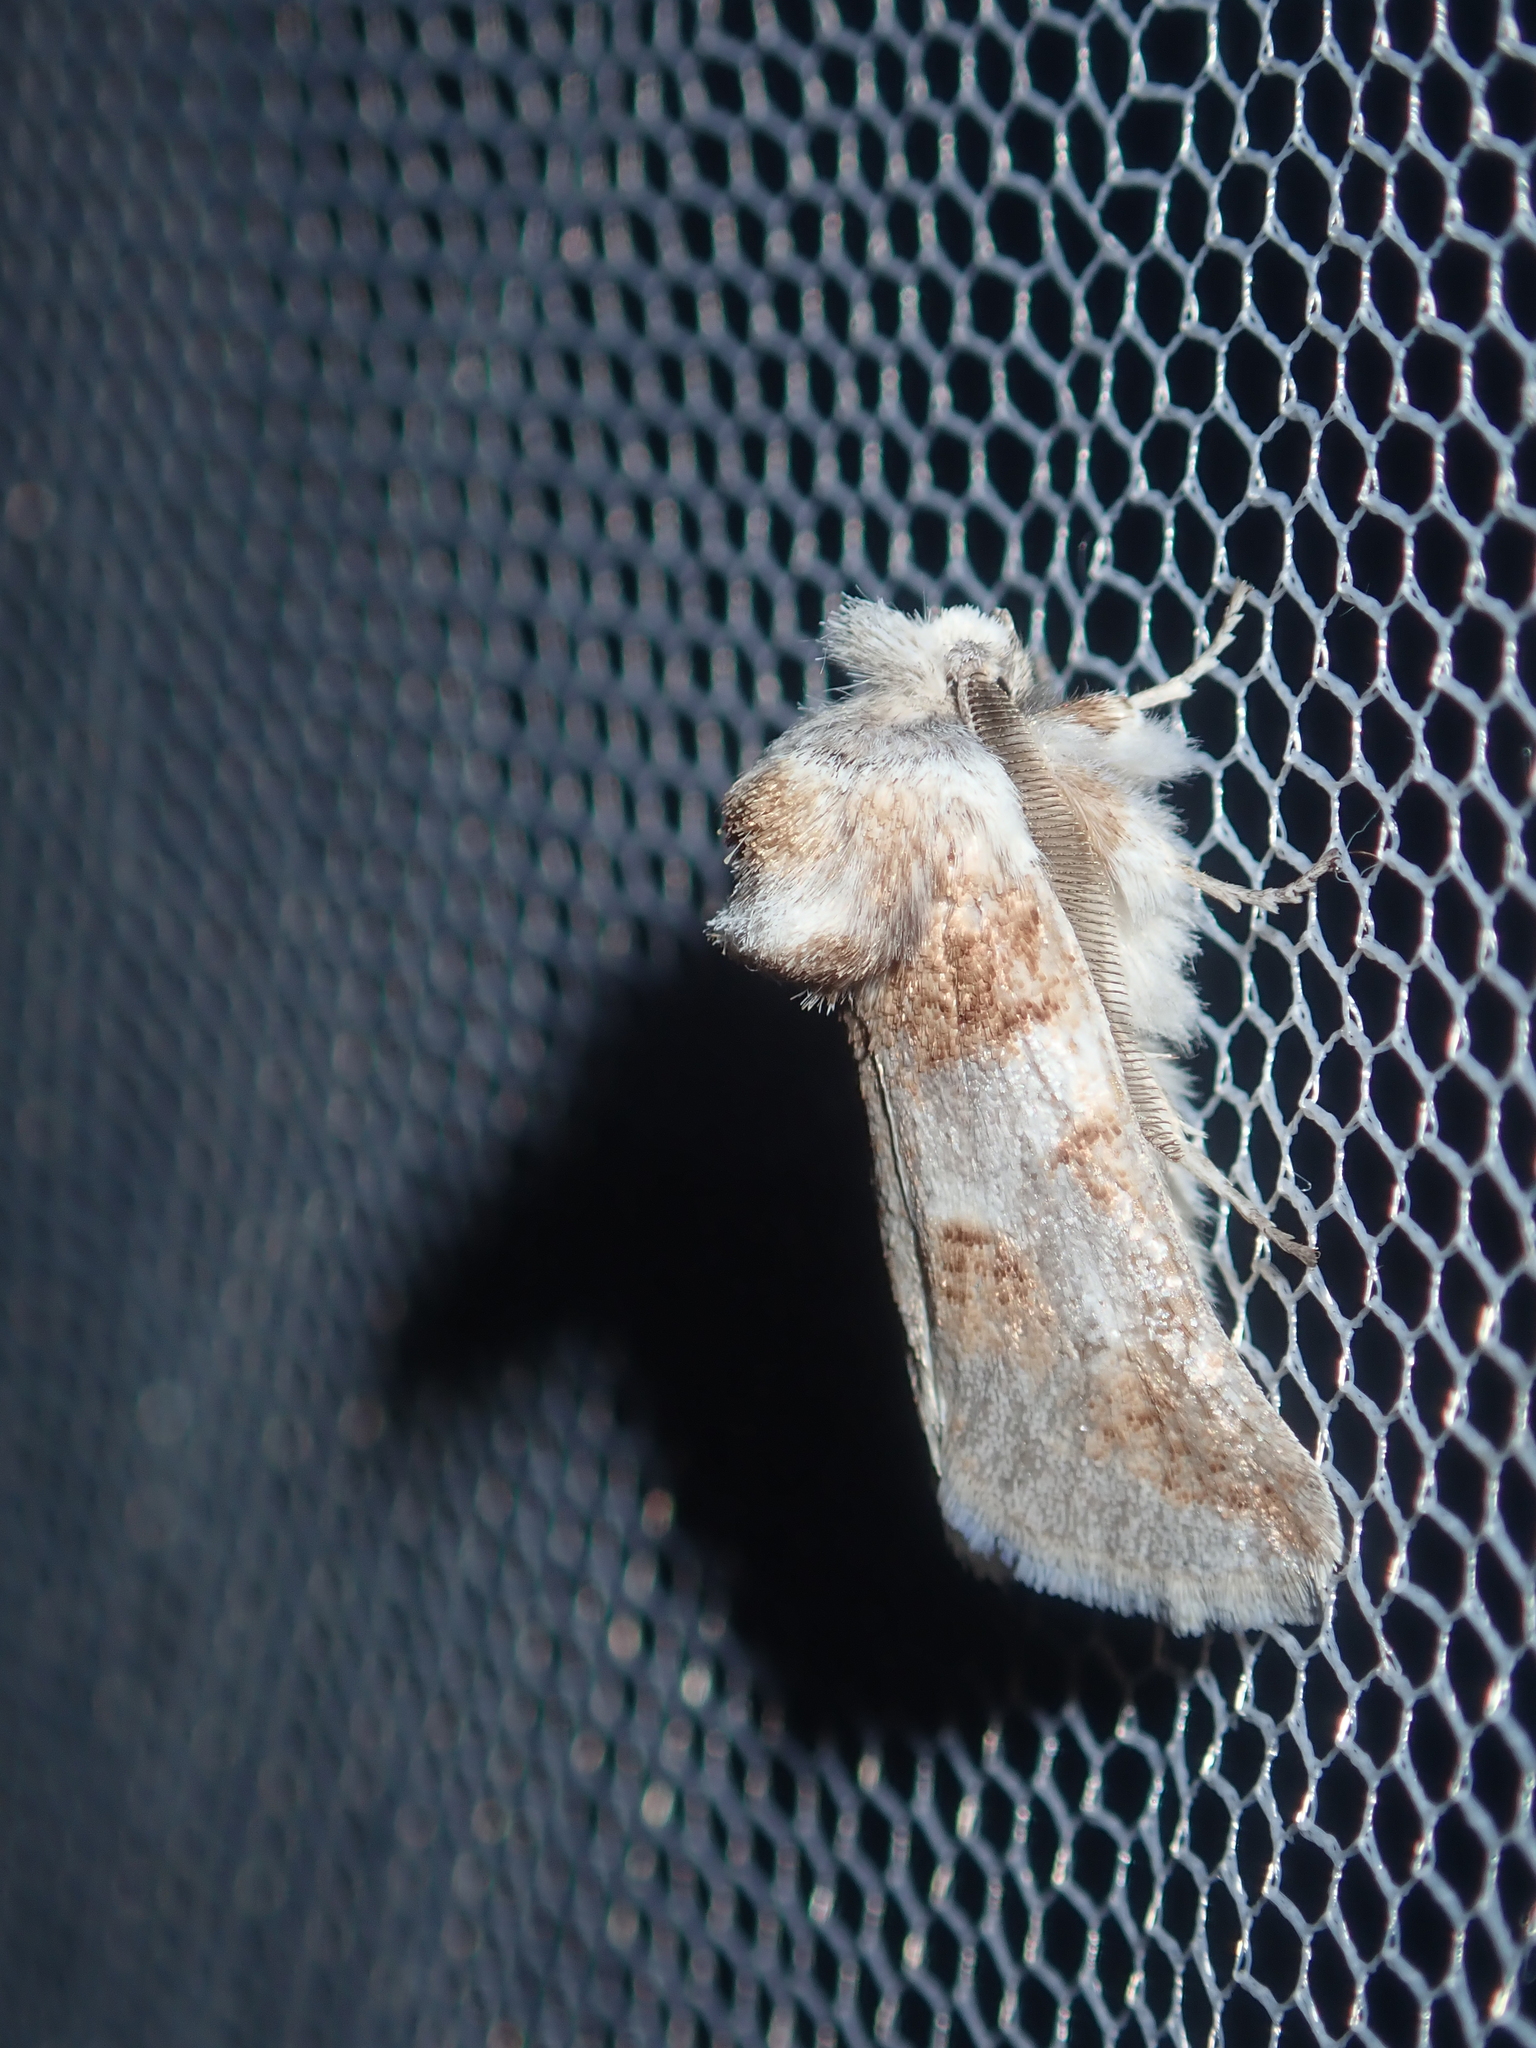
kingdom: Animalia
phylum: Arthropoda
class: Insecta
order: Lepidoptera
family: Cossidae
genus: Culama
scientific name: Culama dasythrix
